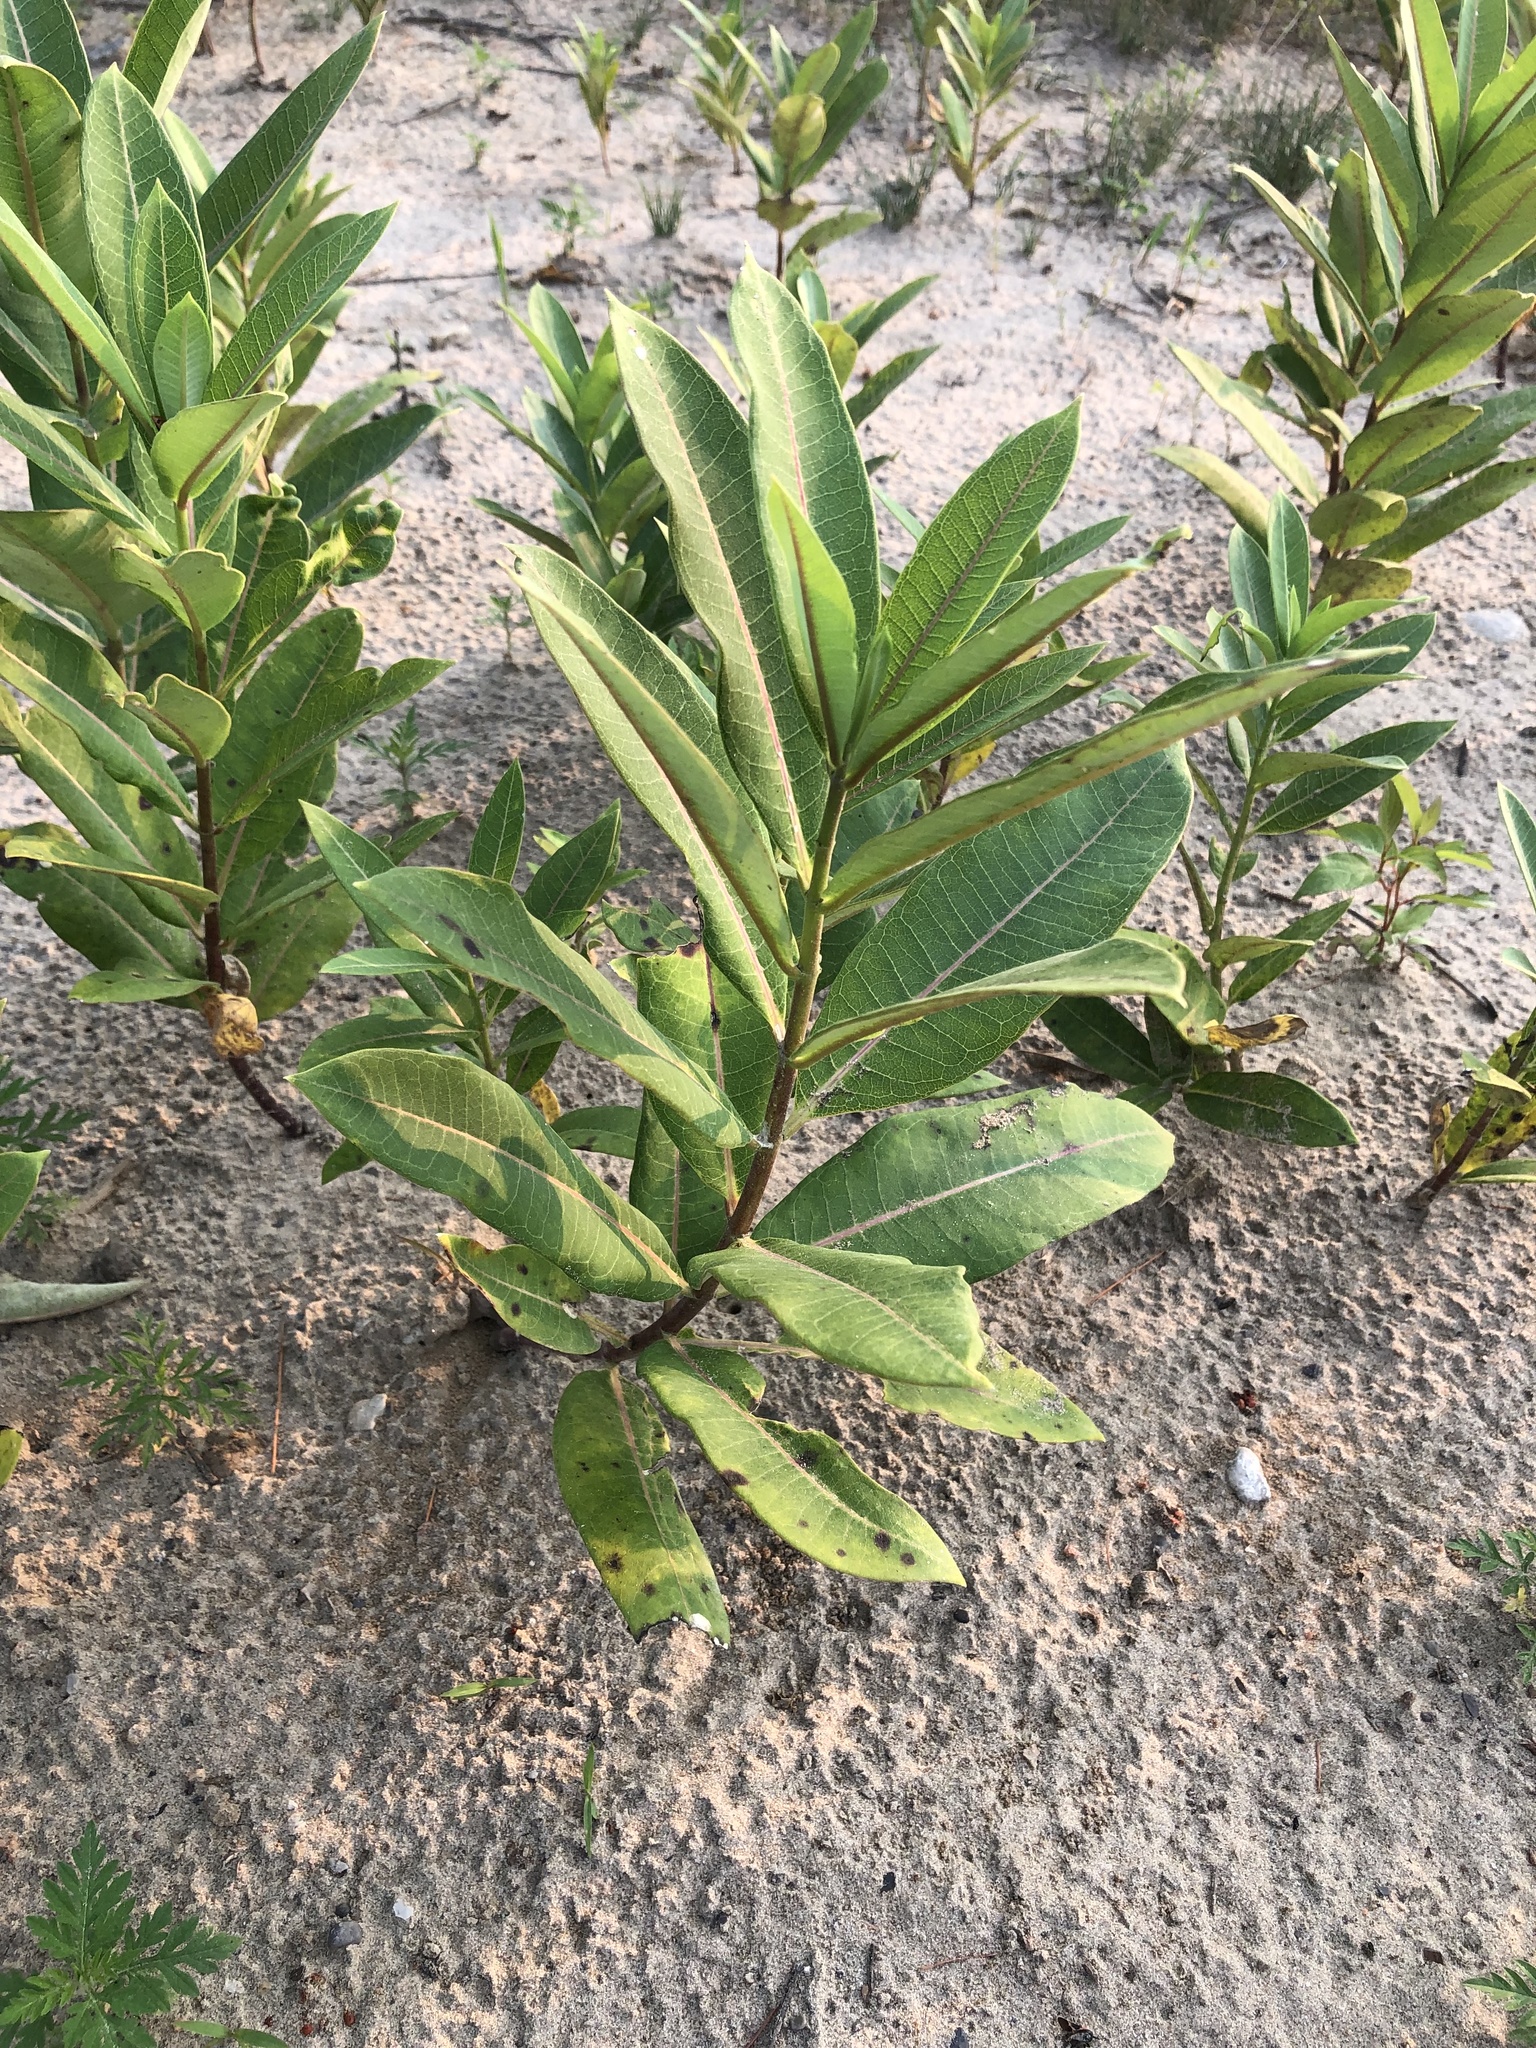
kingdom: Plantae
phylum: Tracheophyta
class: Magnoliopsida
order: Gentianales
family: Apocynaceae
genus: Asclepias
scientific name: Asclepias syriaca
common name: Common milkweed
